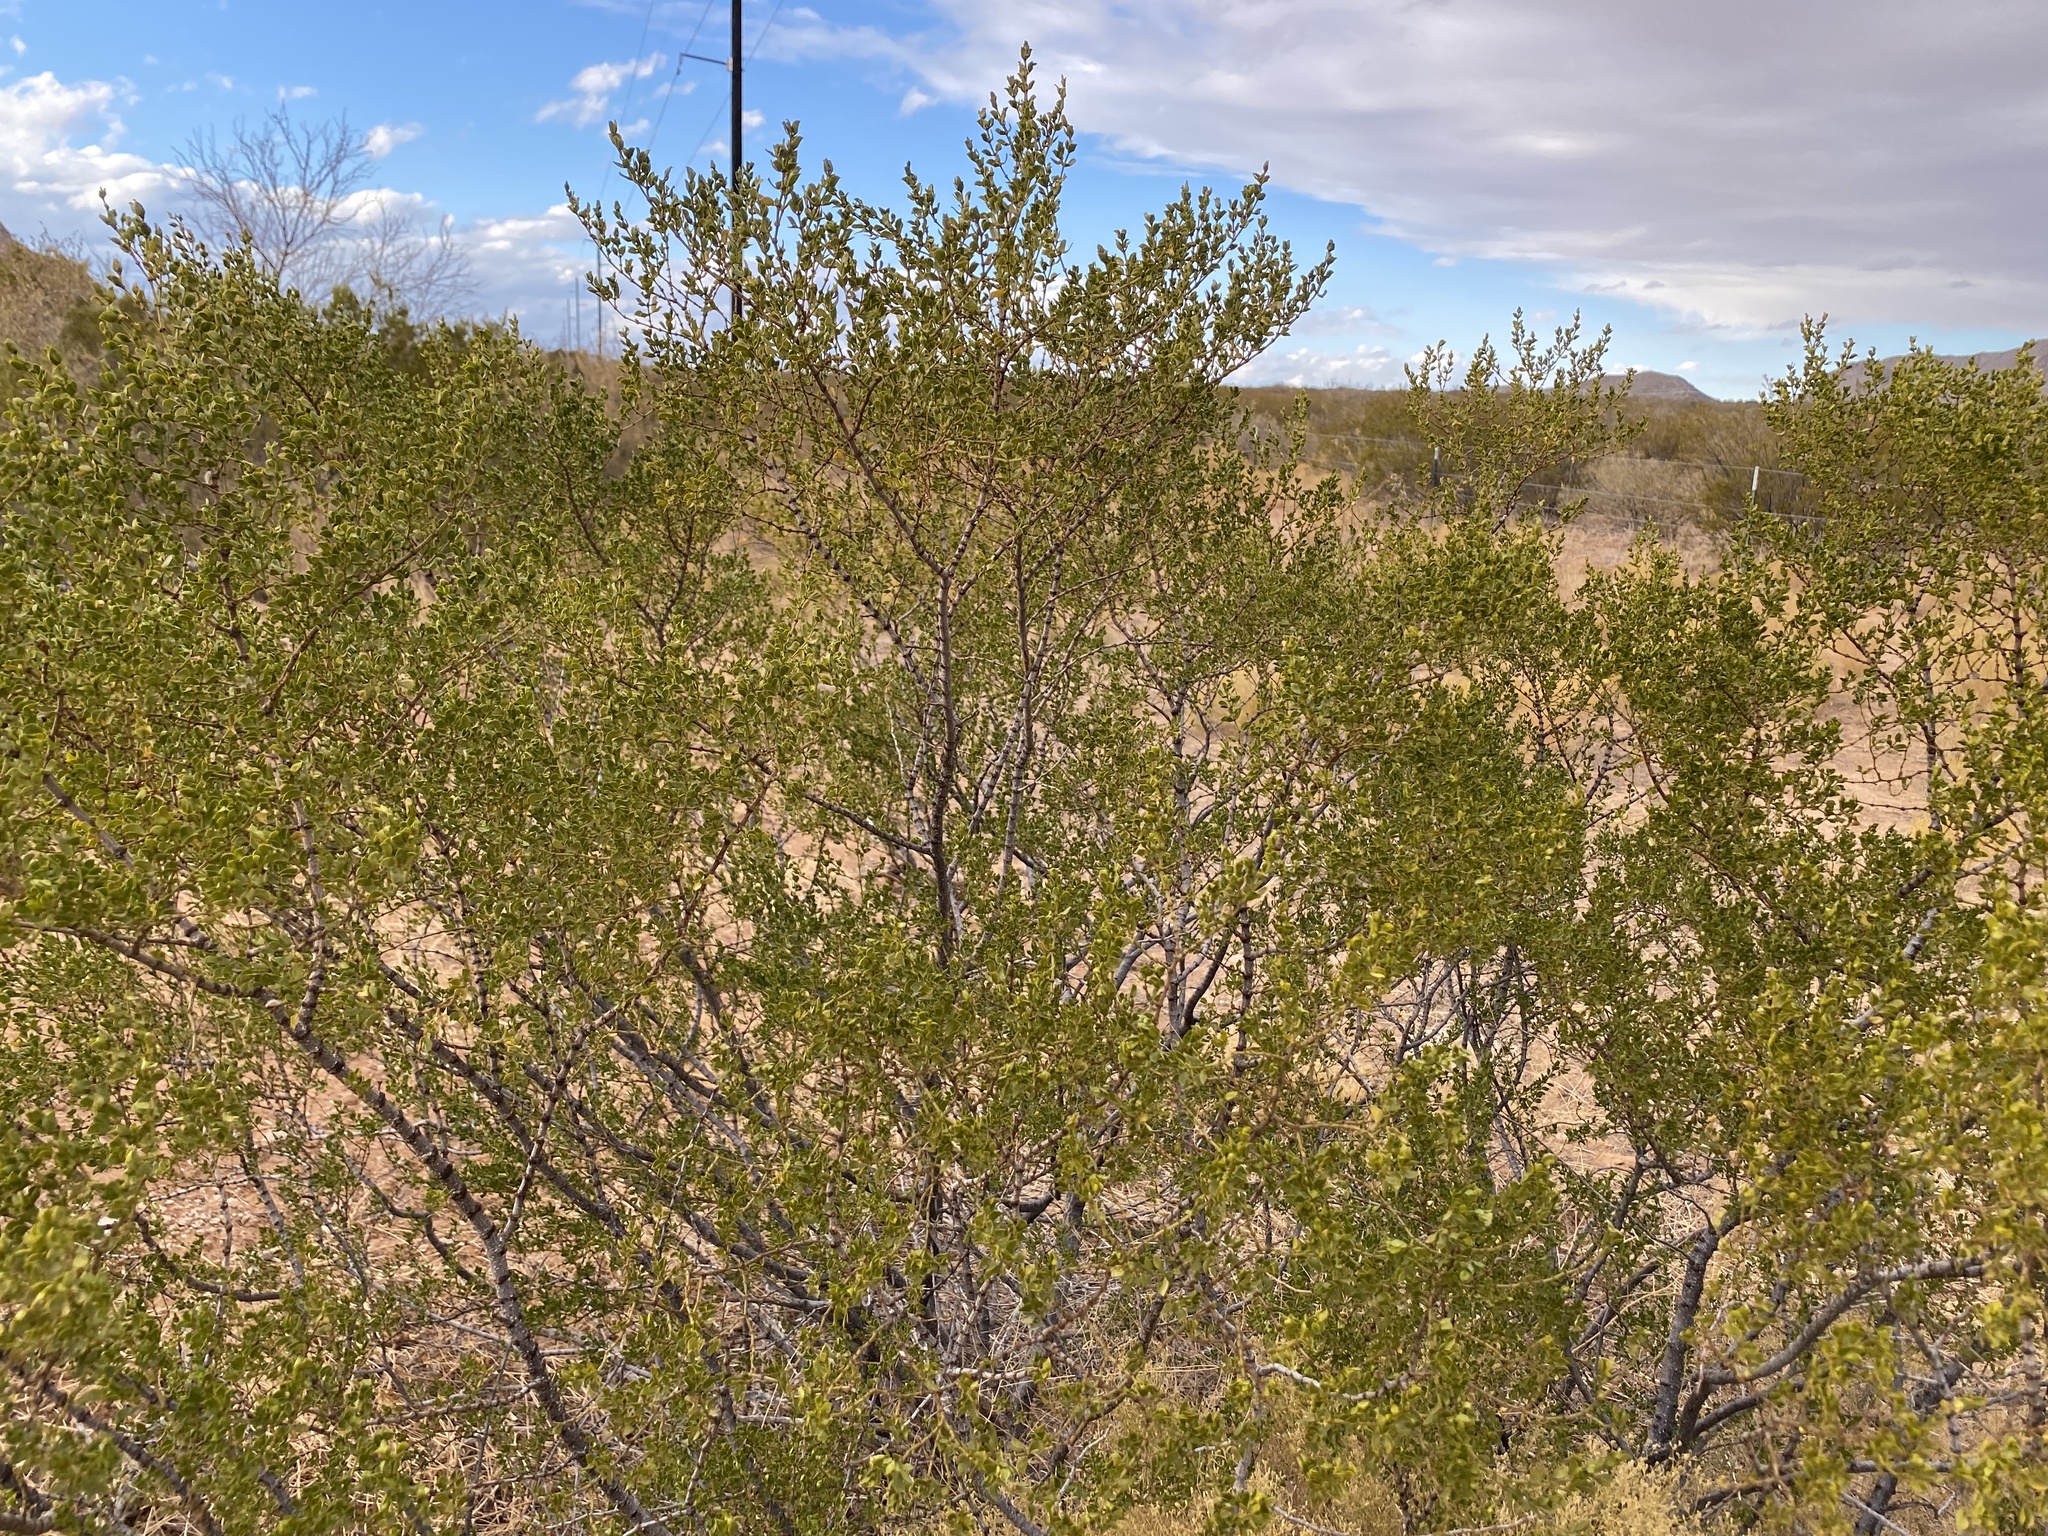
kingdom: Plantae
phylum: Tracheophyta
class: Magnoliopsida
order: Zygophyllales
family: Zygophyllaceae
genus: Larrea
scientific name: Larrea tridentata
